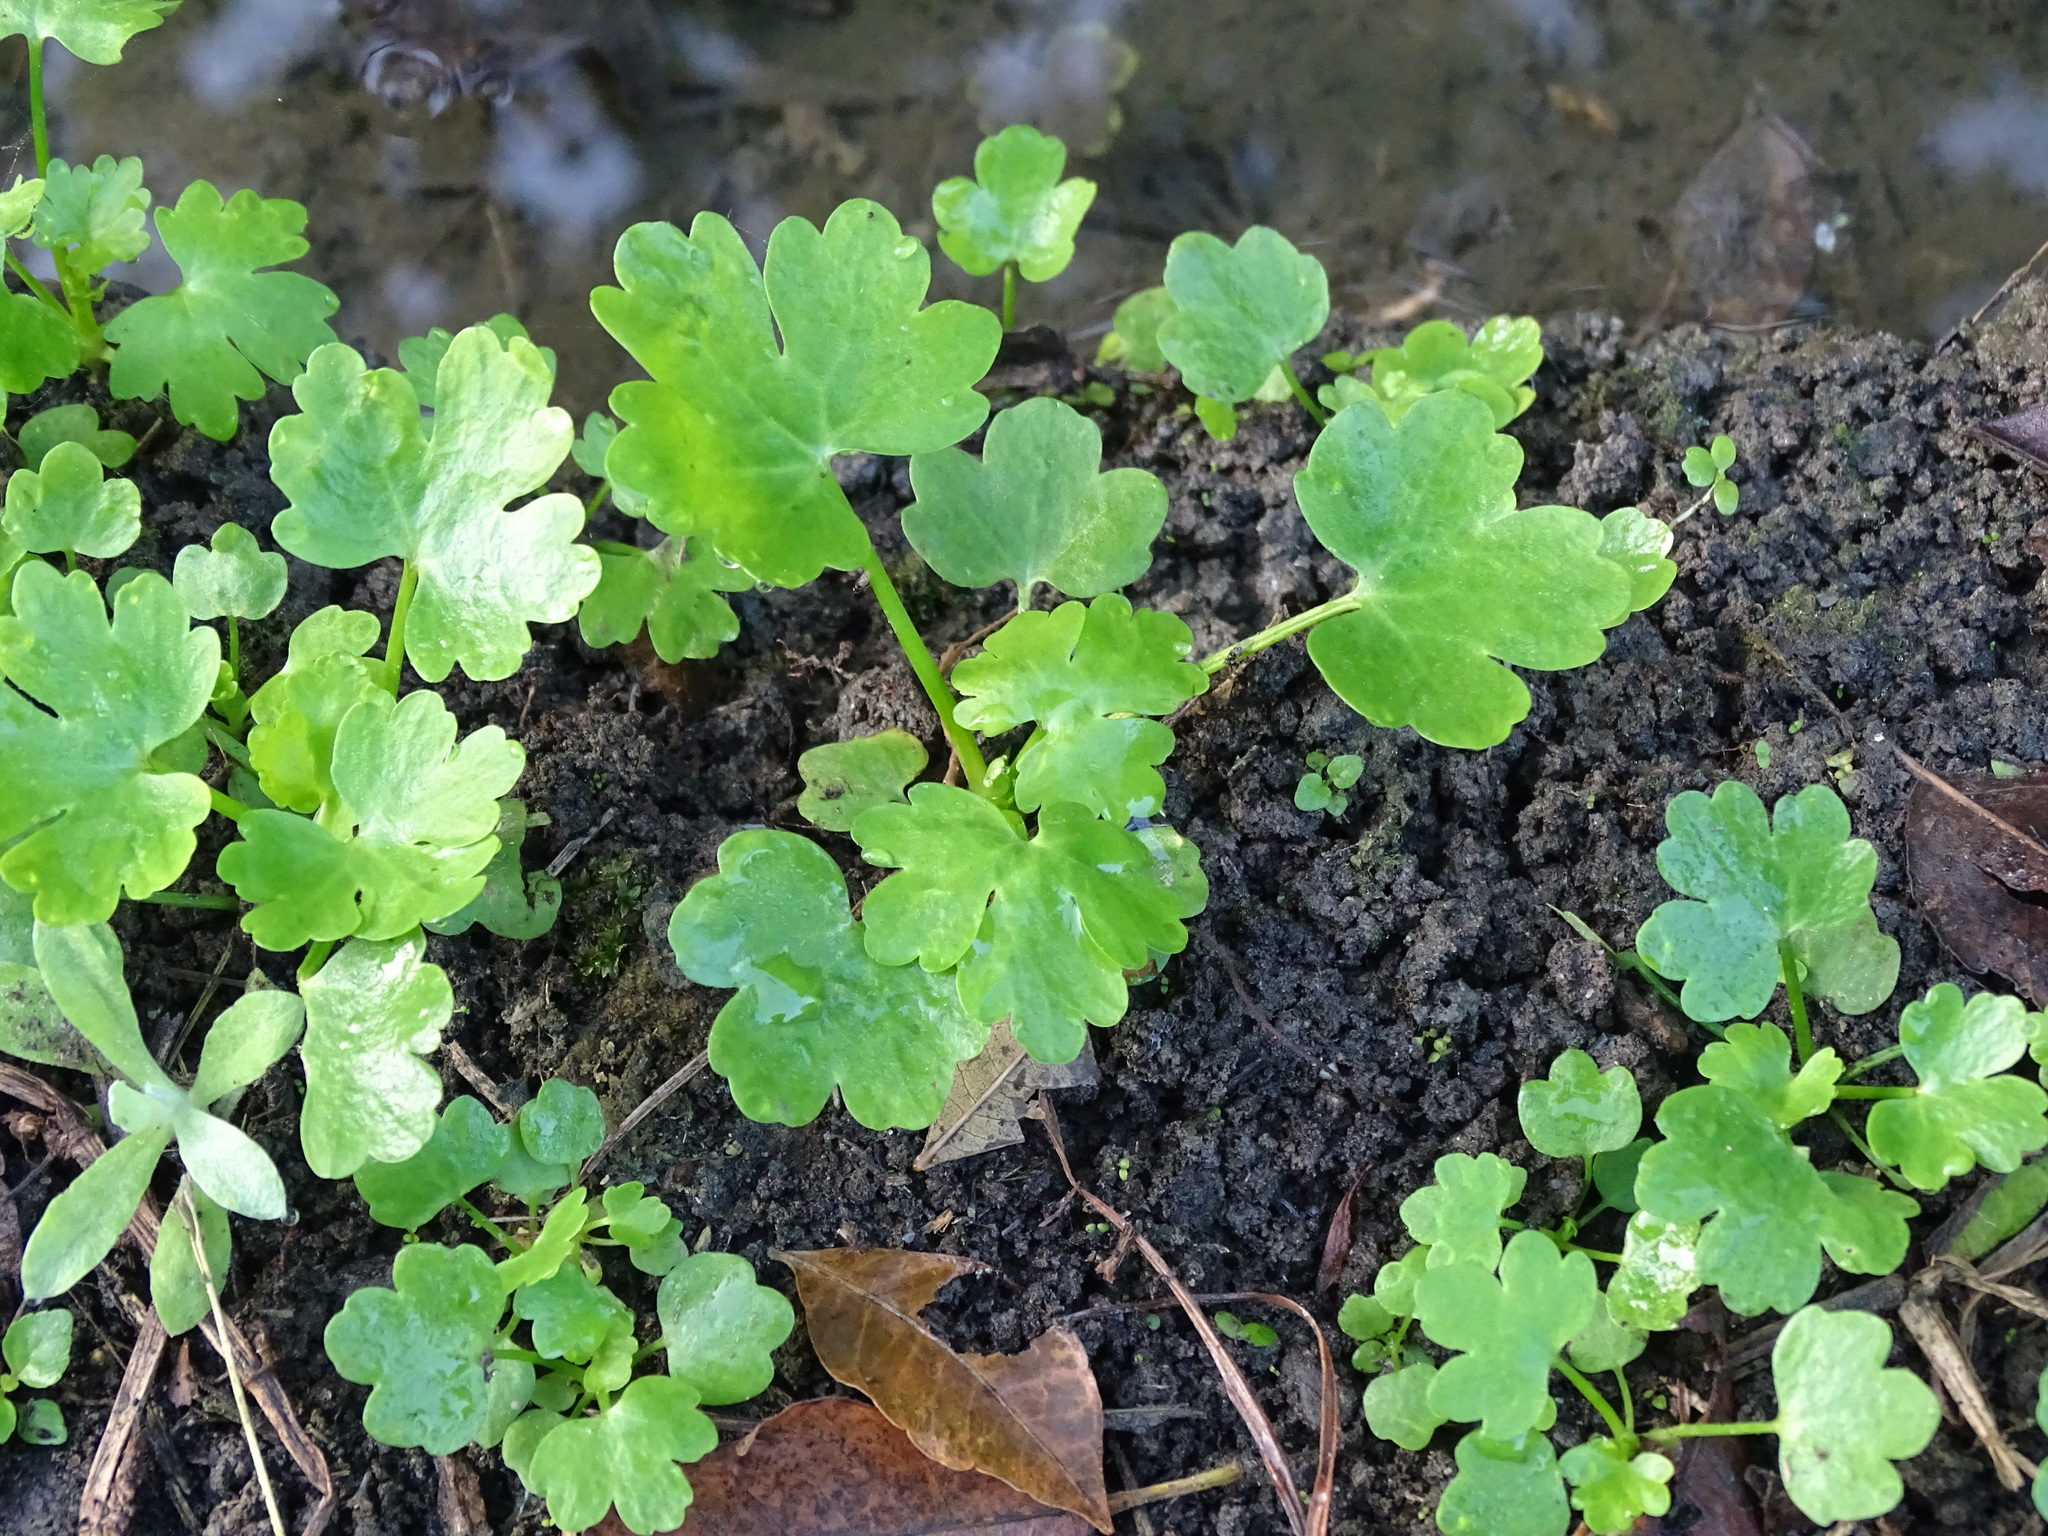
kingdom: Plantae
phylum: Tracheophyta
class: Magnoliopsida
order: Ranunculales
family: Ranunculaceae
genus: Ranunculus
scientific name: Ranunculus sceleratus
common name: Celery-leaved buttercup
